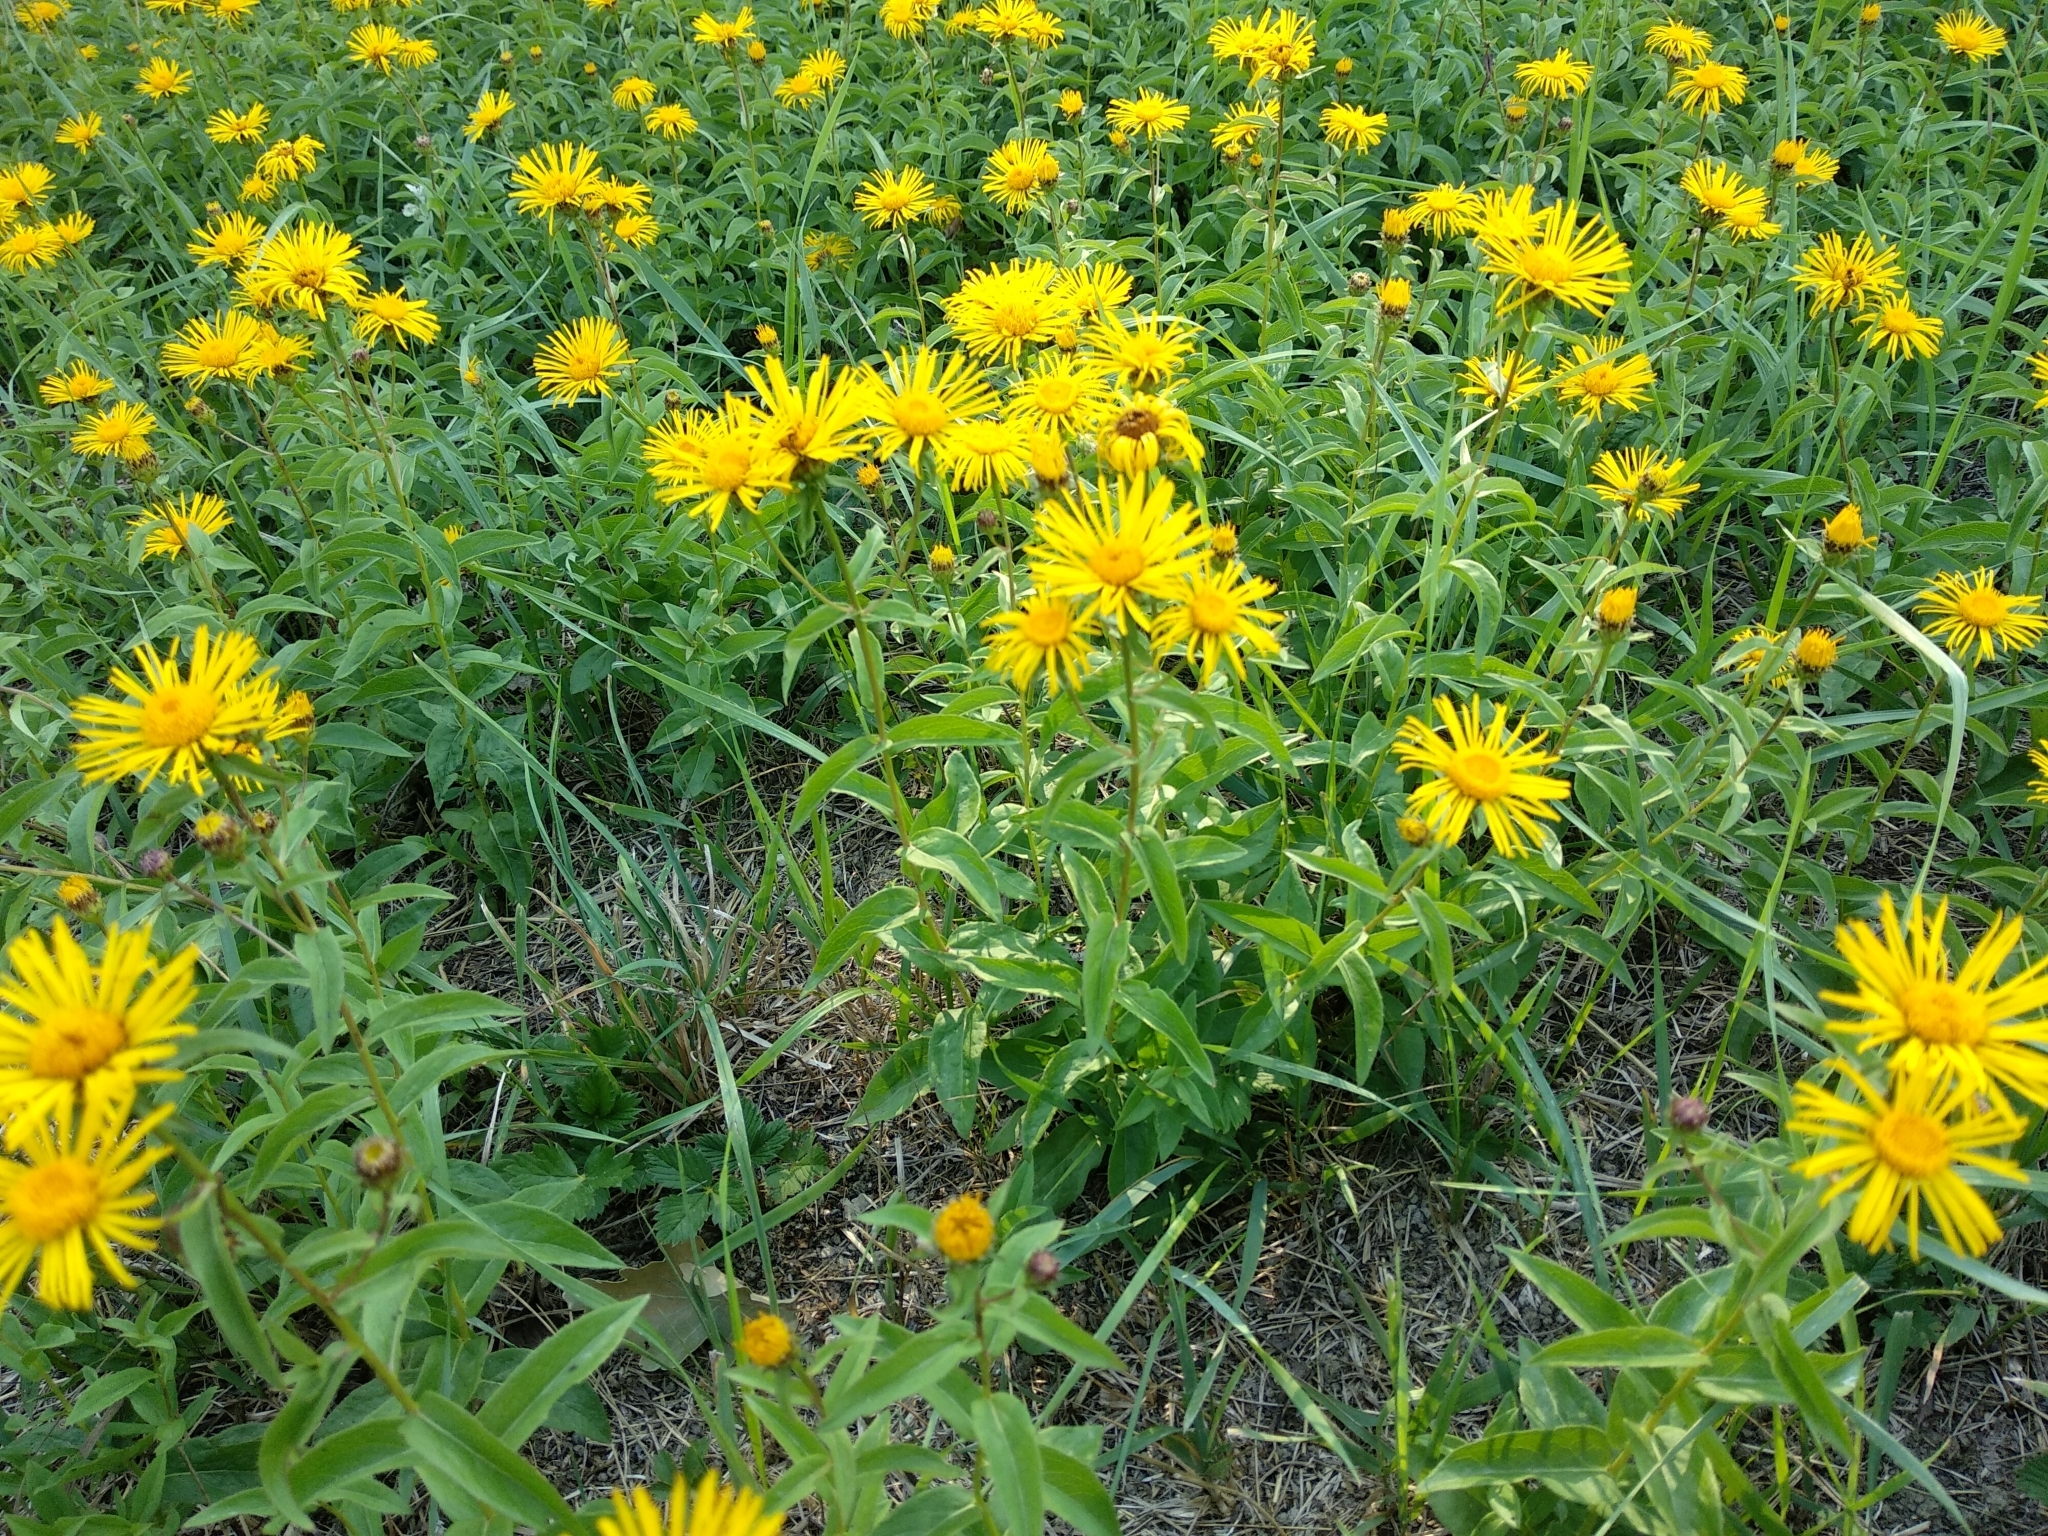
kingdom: Plantae
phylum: Tracheophyta
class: Magnoliopsida
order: Asterales
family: Asteraceae
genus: Pentanema
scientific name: Pentanema salicinum
